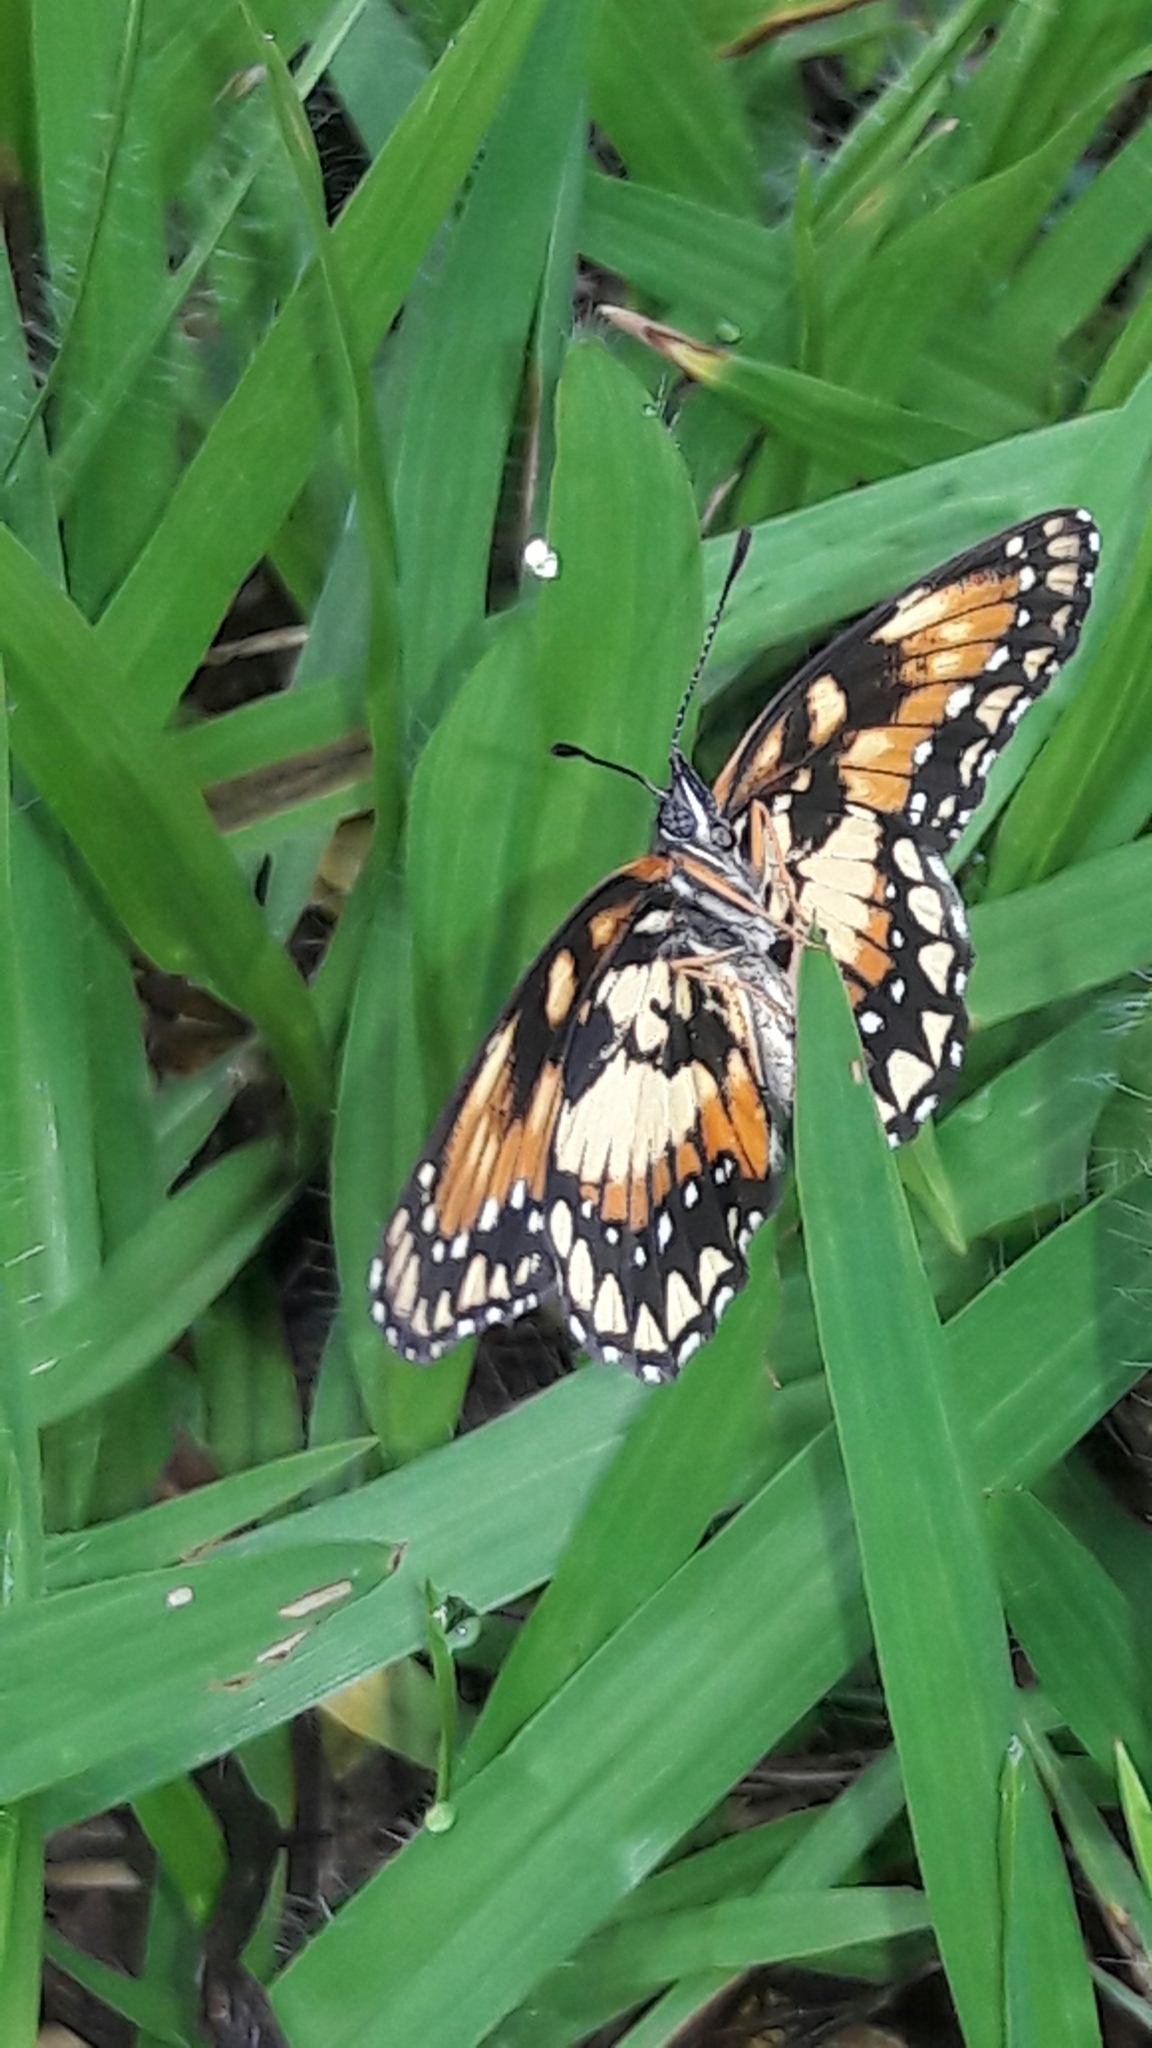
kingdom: Animalia
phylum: Arthropoda
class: Insecta
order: Lepidoptera
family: Nymphalidae
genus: Chlosyne
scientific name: Chlosyne lacinia
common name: Bordered patch
